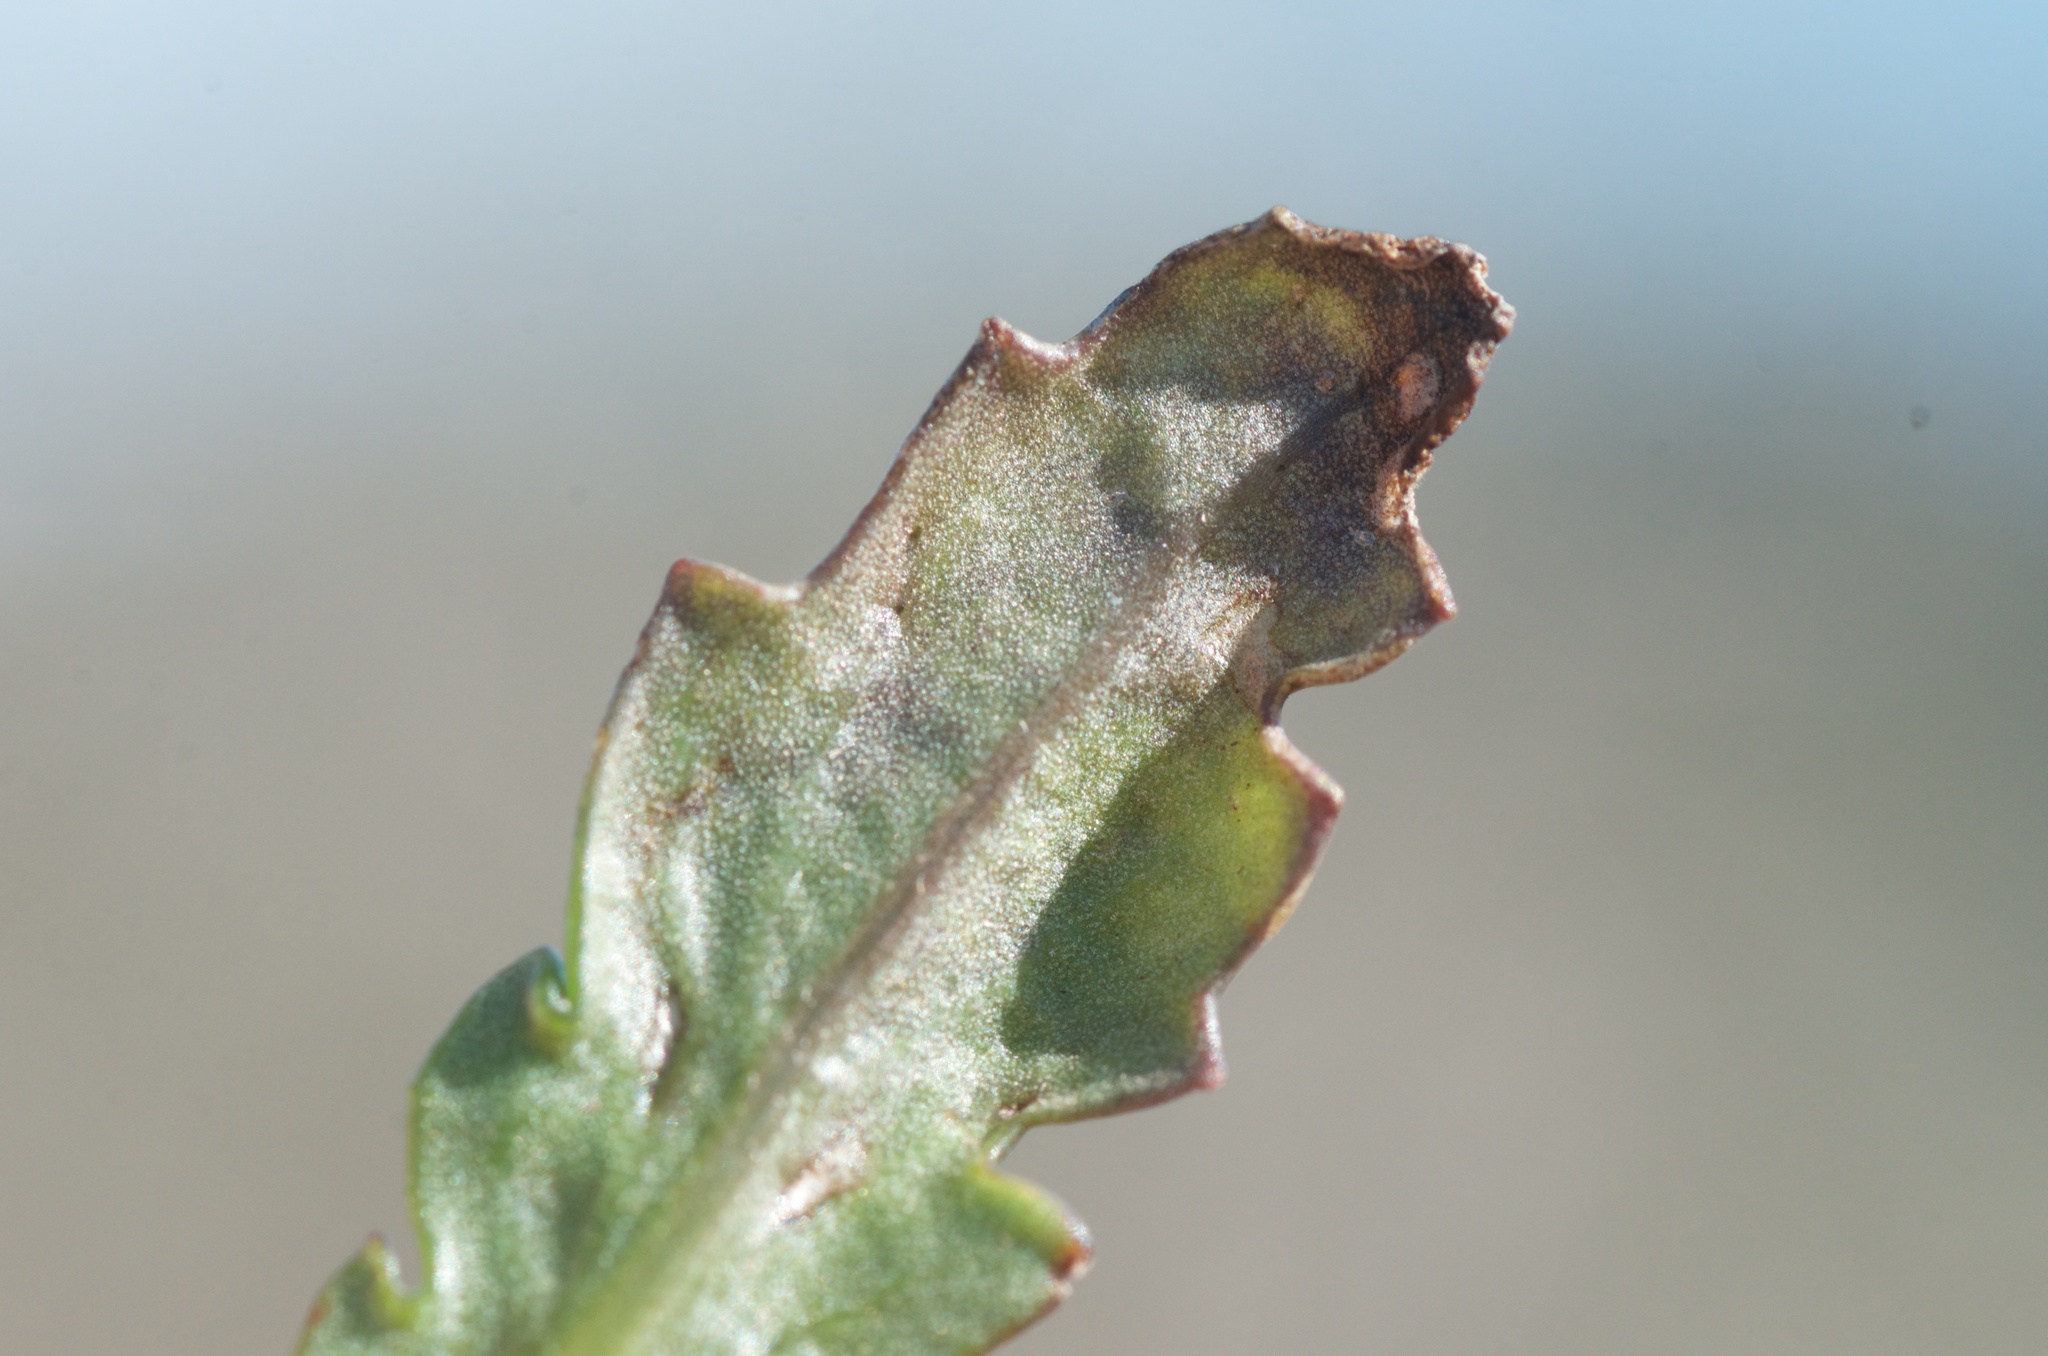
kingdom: Plantae
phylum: Tracheophyta
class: Magnoliopsida
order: Asterales
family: Asteraceae
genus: Senecio
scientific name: Senecio matatini
